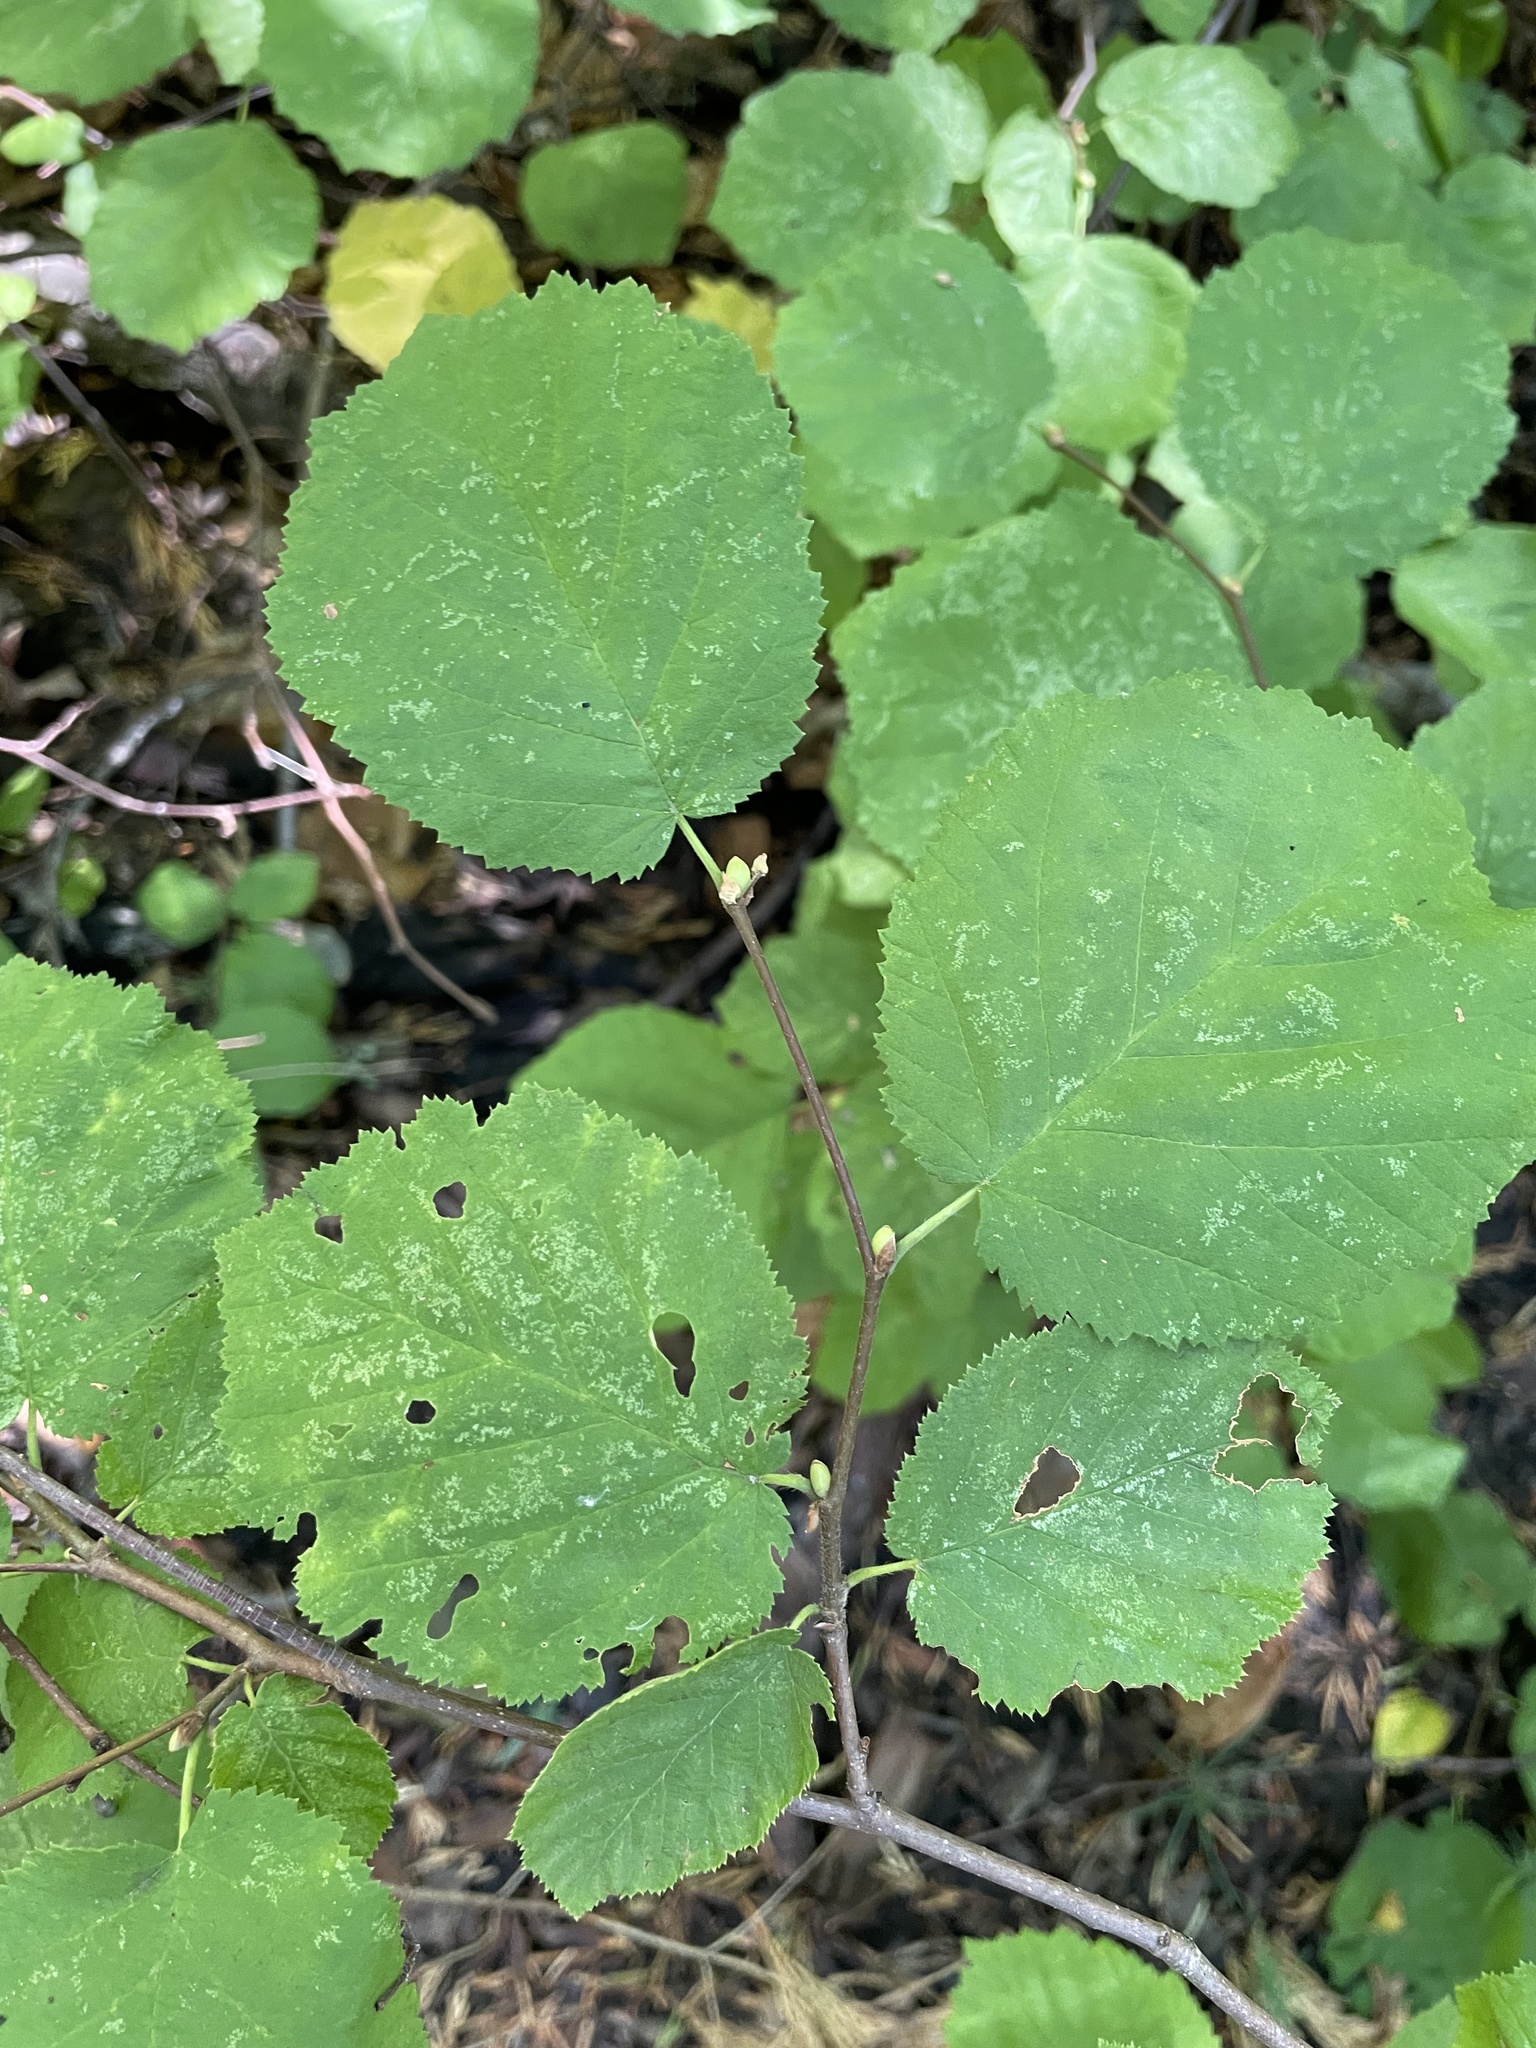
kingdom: Plantae
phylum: Tracheophyta
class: Magnoliopsida
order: Fagales
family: Betulaceae
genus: Corylus
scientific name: Corylus cornuta
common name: Beaked hazel
